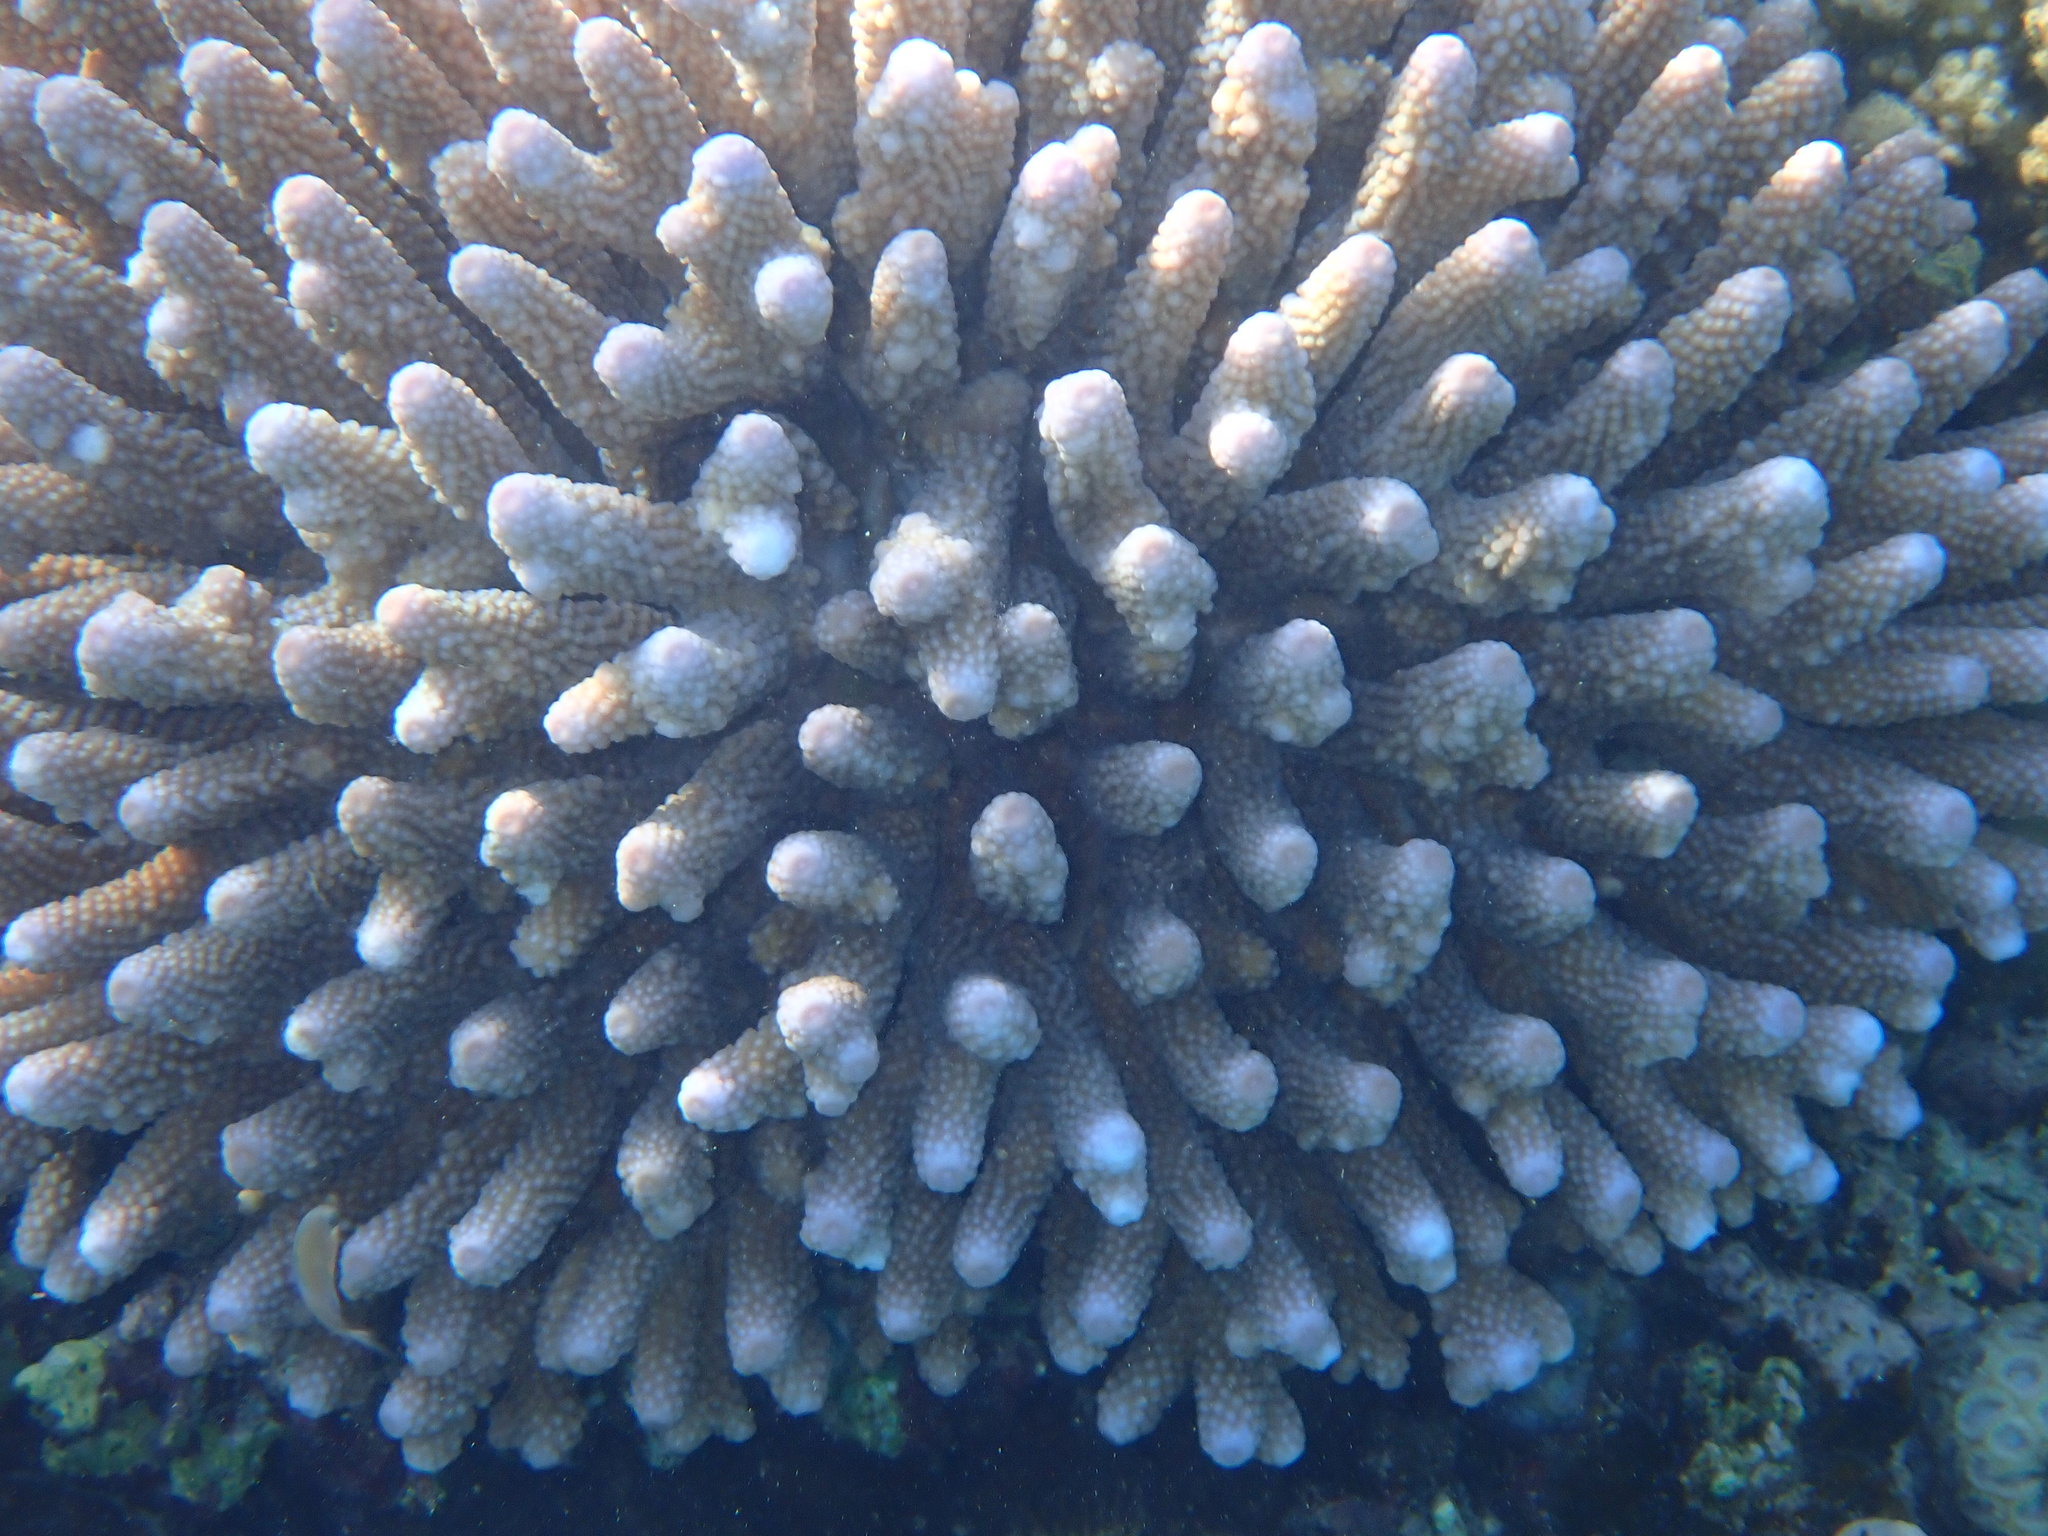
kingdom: Animalia
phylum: Cnidaria
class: Anthozoa
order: Scleractinia
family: Acroporidae
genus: Acropora
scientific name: Acropora humilis
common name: Finger coral
